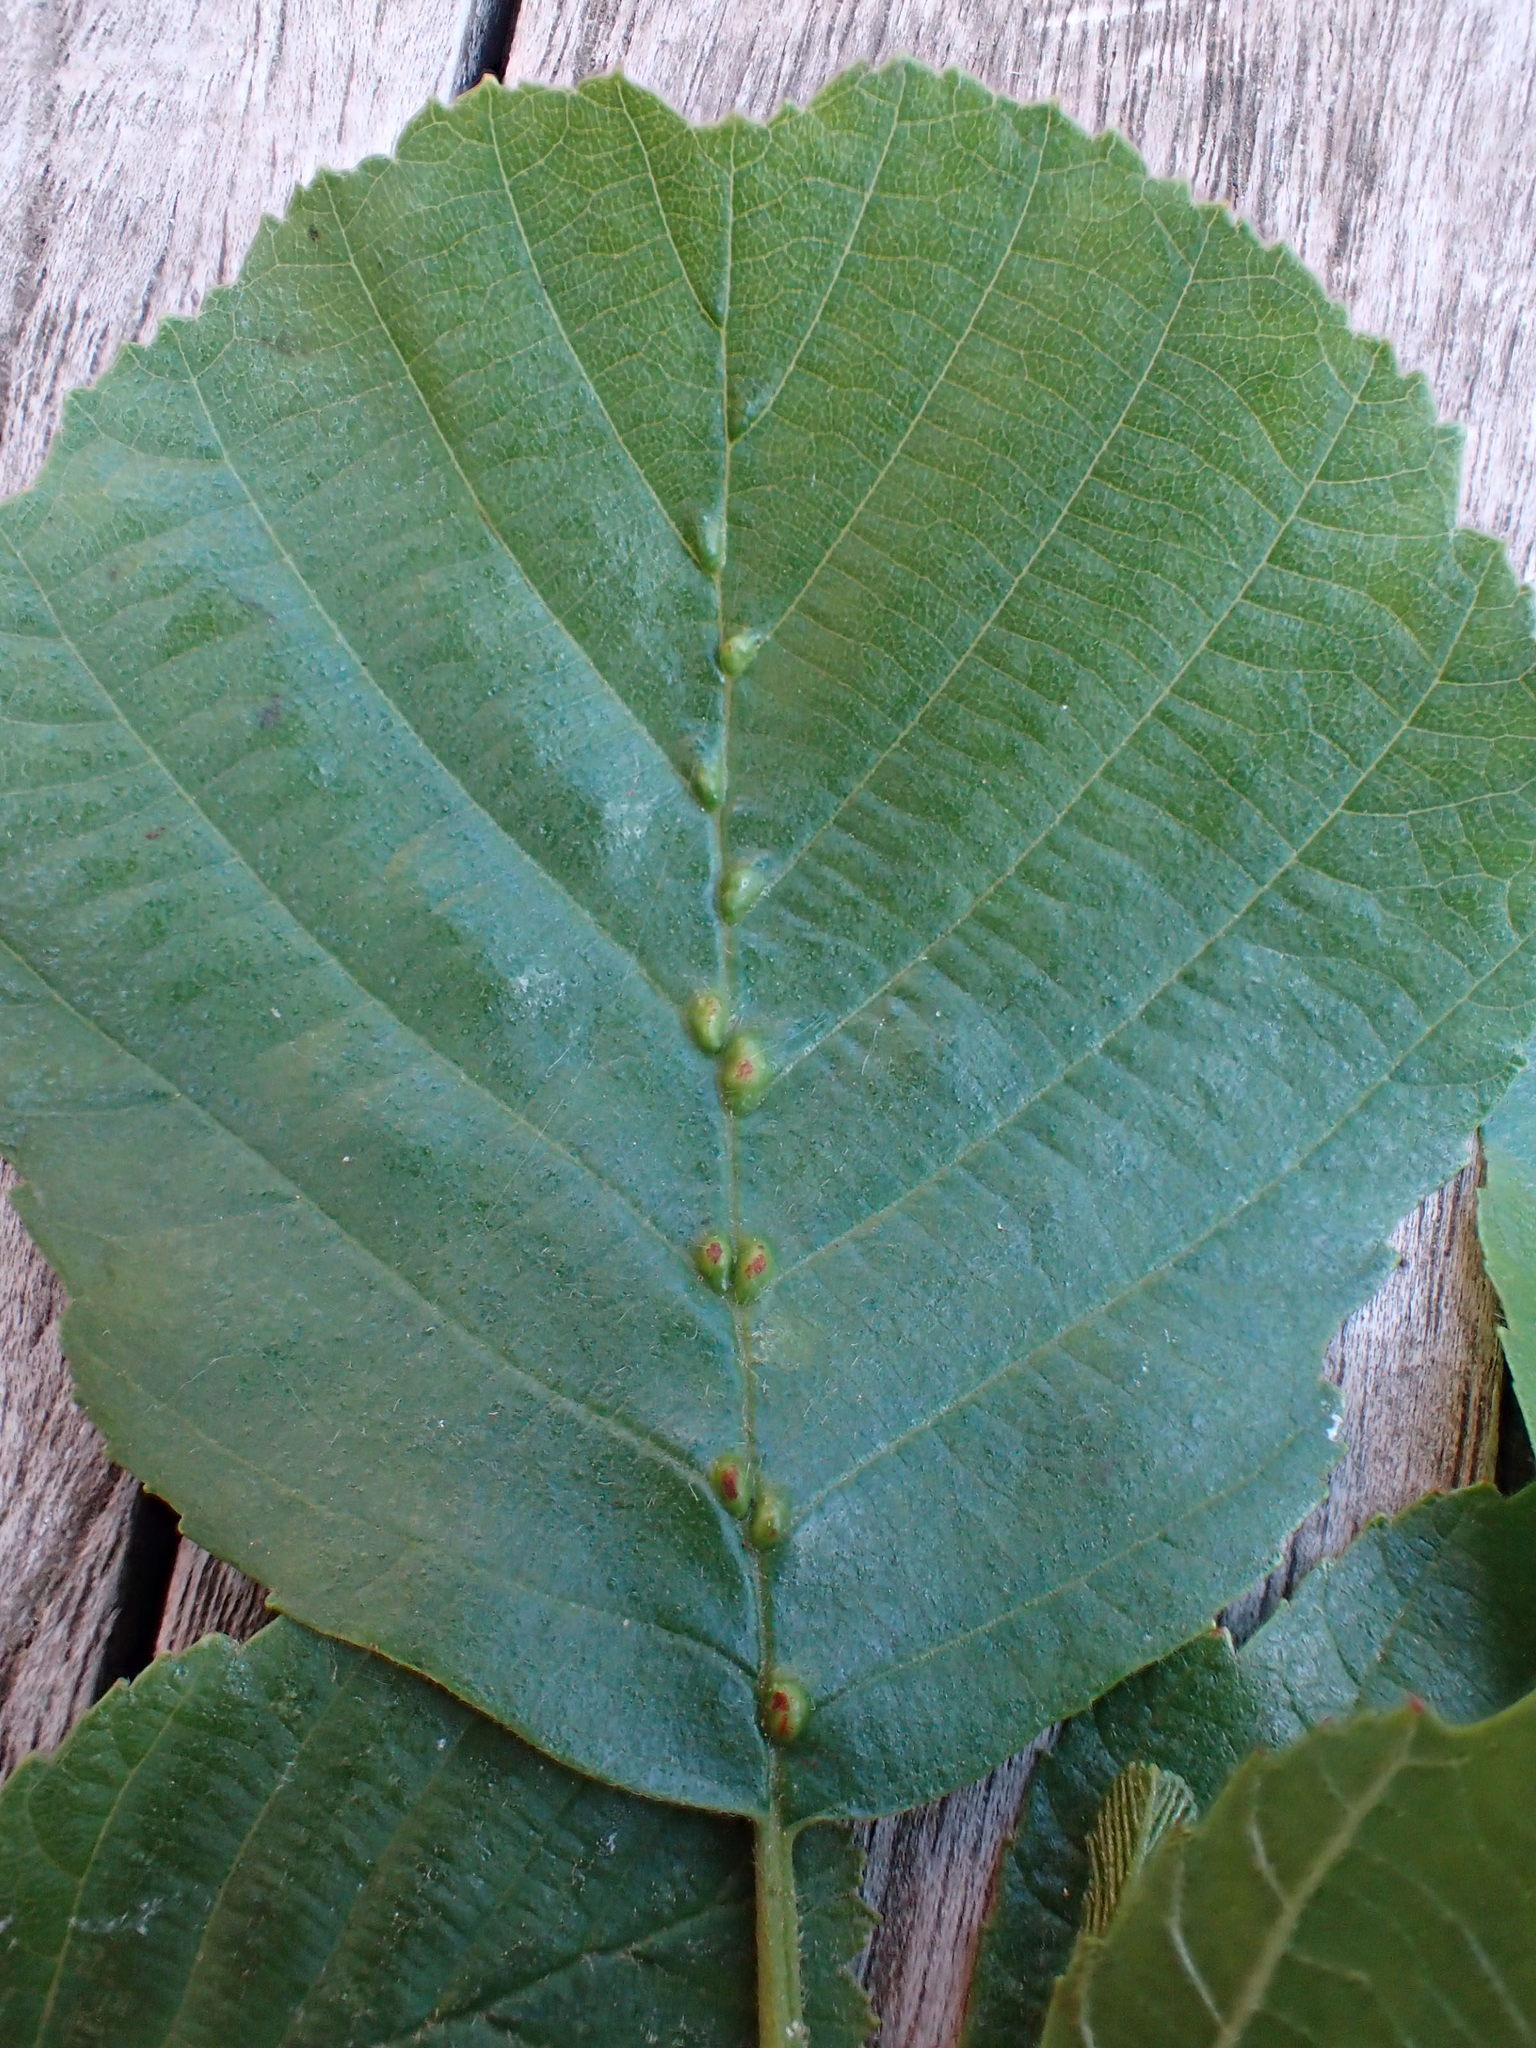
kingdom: Animalia
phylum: Arthropoda
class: Arachnida
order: Trombidiformes
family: Eriophyidae
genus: Eriophyes
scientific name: Eriophyes inangulis
